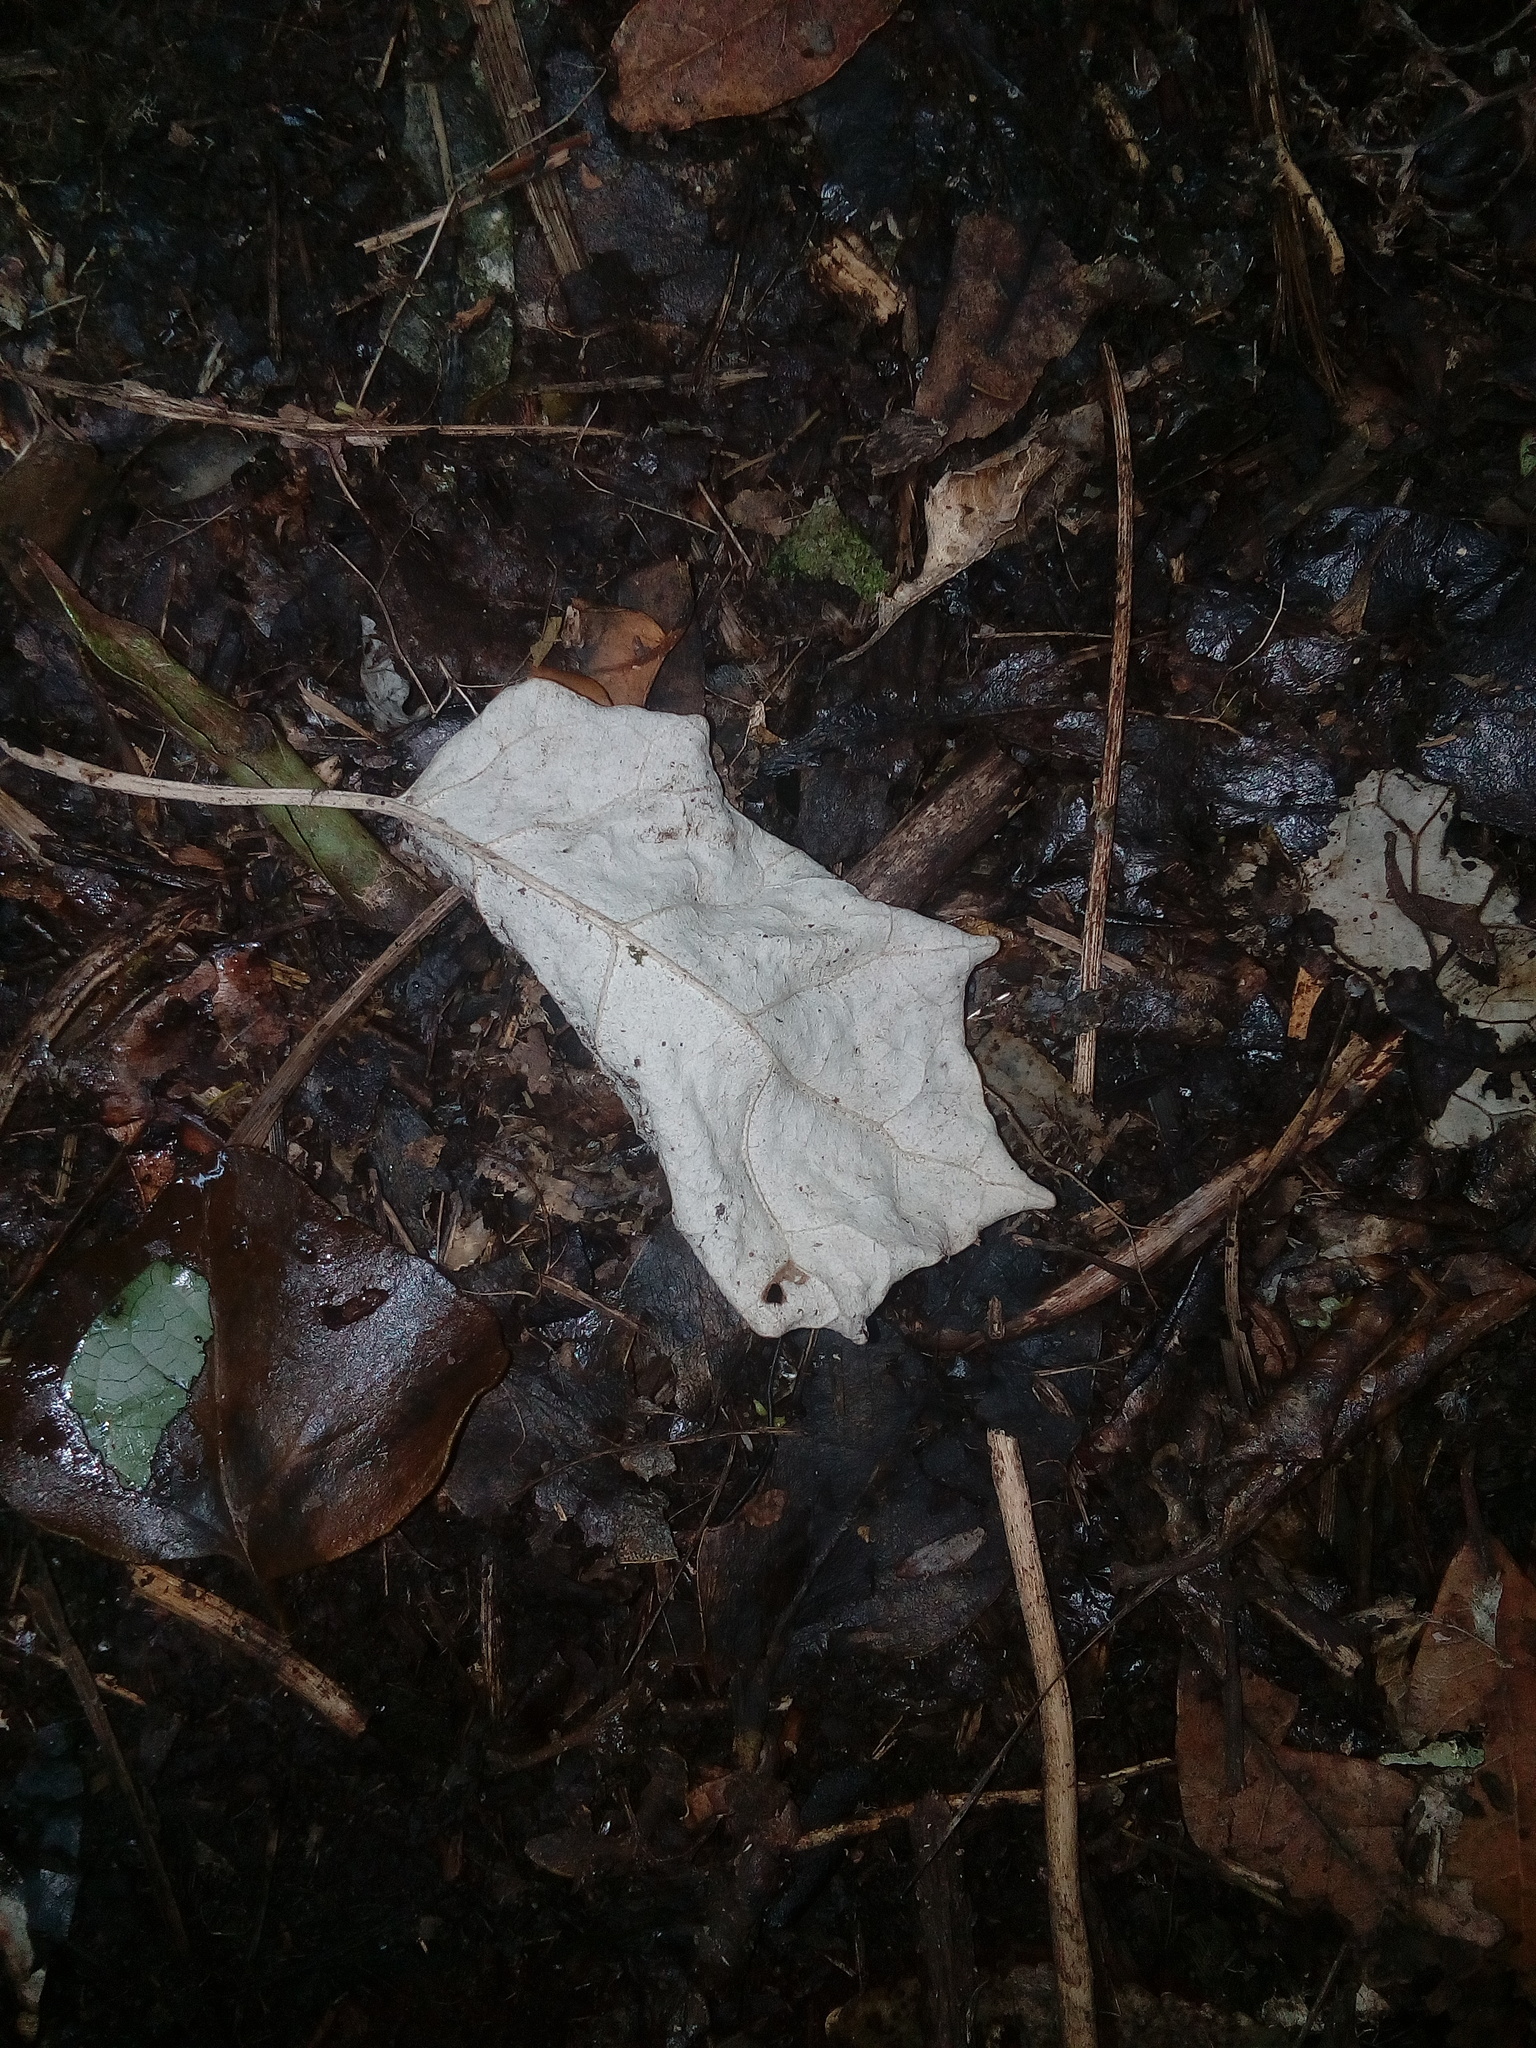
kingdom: Plantae
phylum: Tracheophyta
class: Magnoliopsida
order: Asterales
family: Asteraceae
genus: Brachyglottis
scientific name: Brachyglottis repanda
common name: Hedge ragwort
